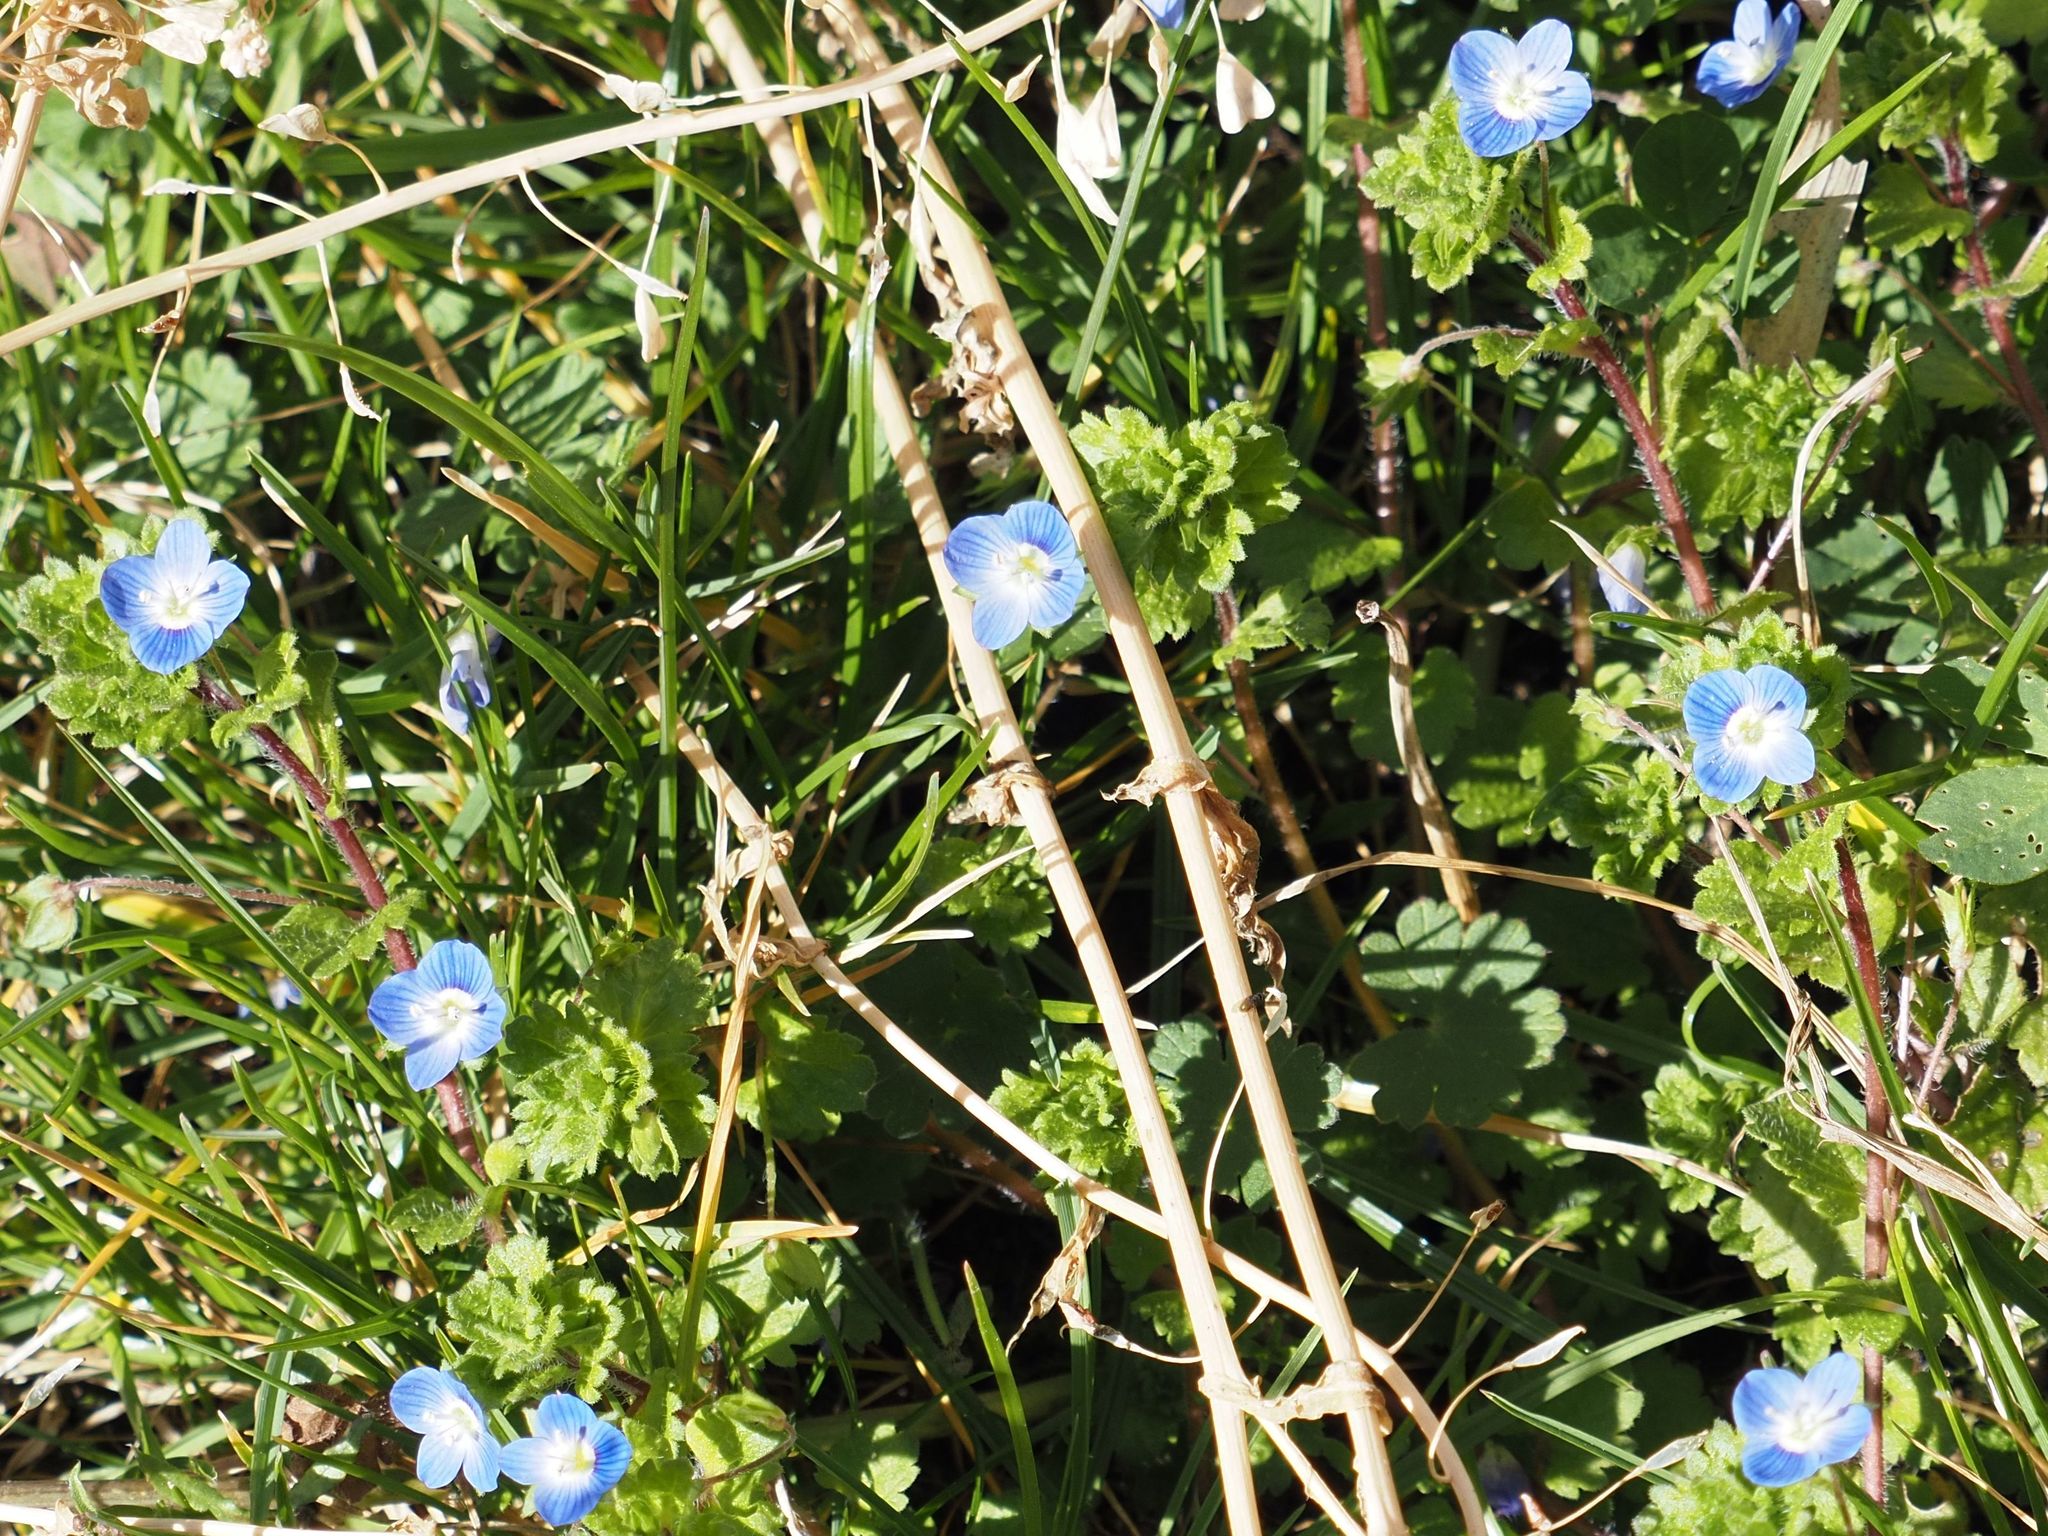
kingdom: Plantae
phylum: Tracheophyta
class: Magnoliopsida
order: Lamiales
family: Plantaginaceae
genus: Veronica
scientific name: Veronica persica
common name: Common field-speedwell
